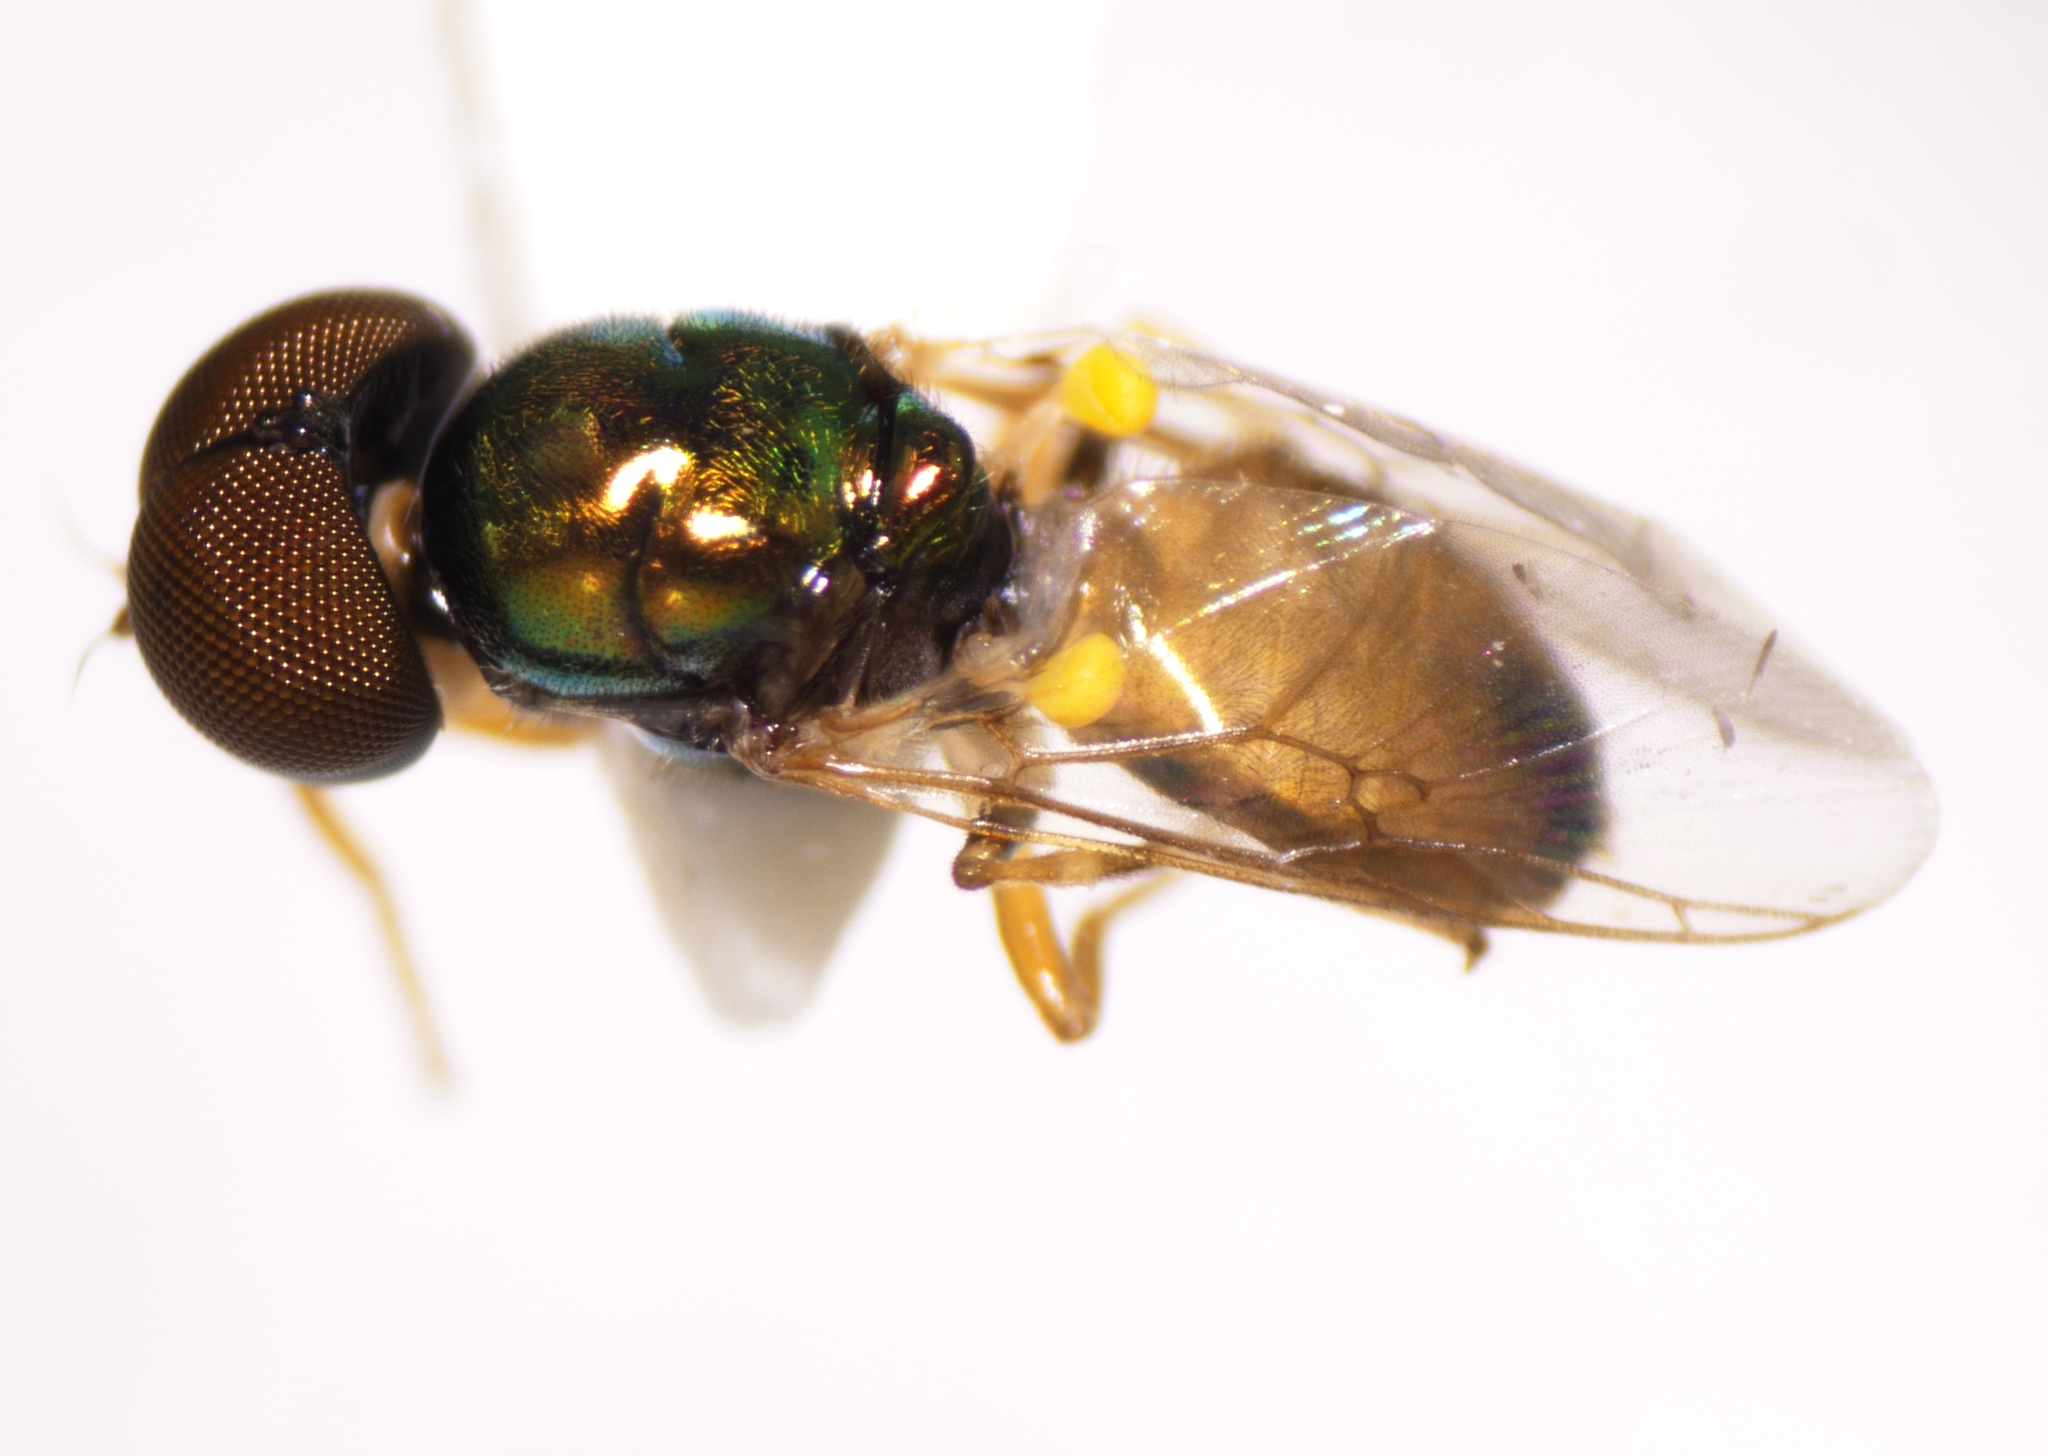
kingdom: Animalia
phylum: Arthropoda
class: Insecta
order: Diptera
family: Stratiomyidae
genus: Microchrysa
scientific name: Microchrysa flaviventris
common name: Soldier fly
